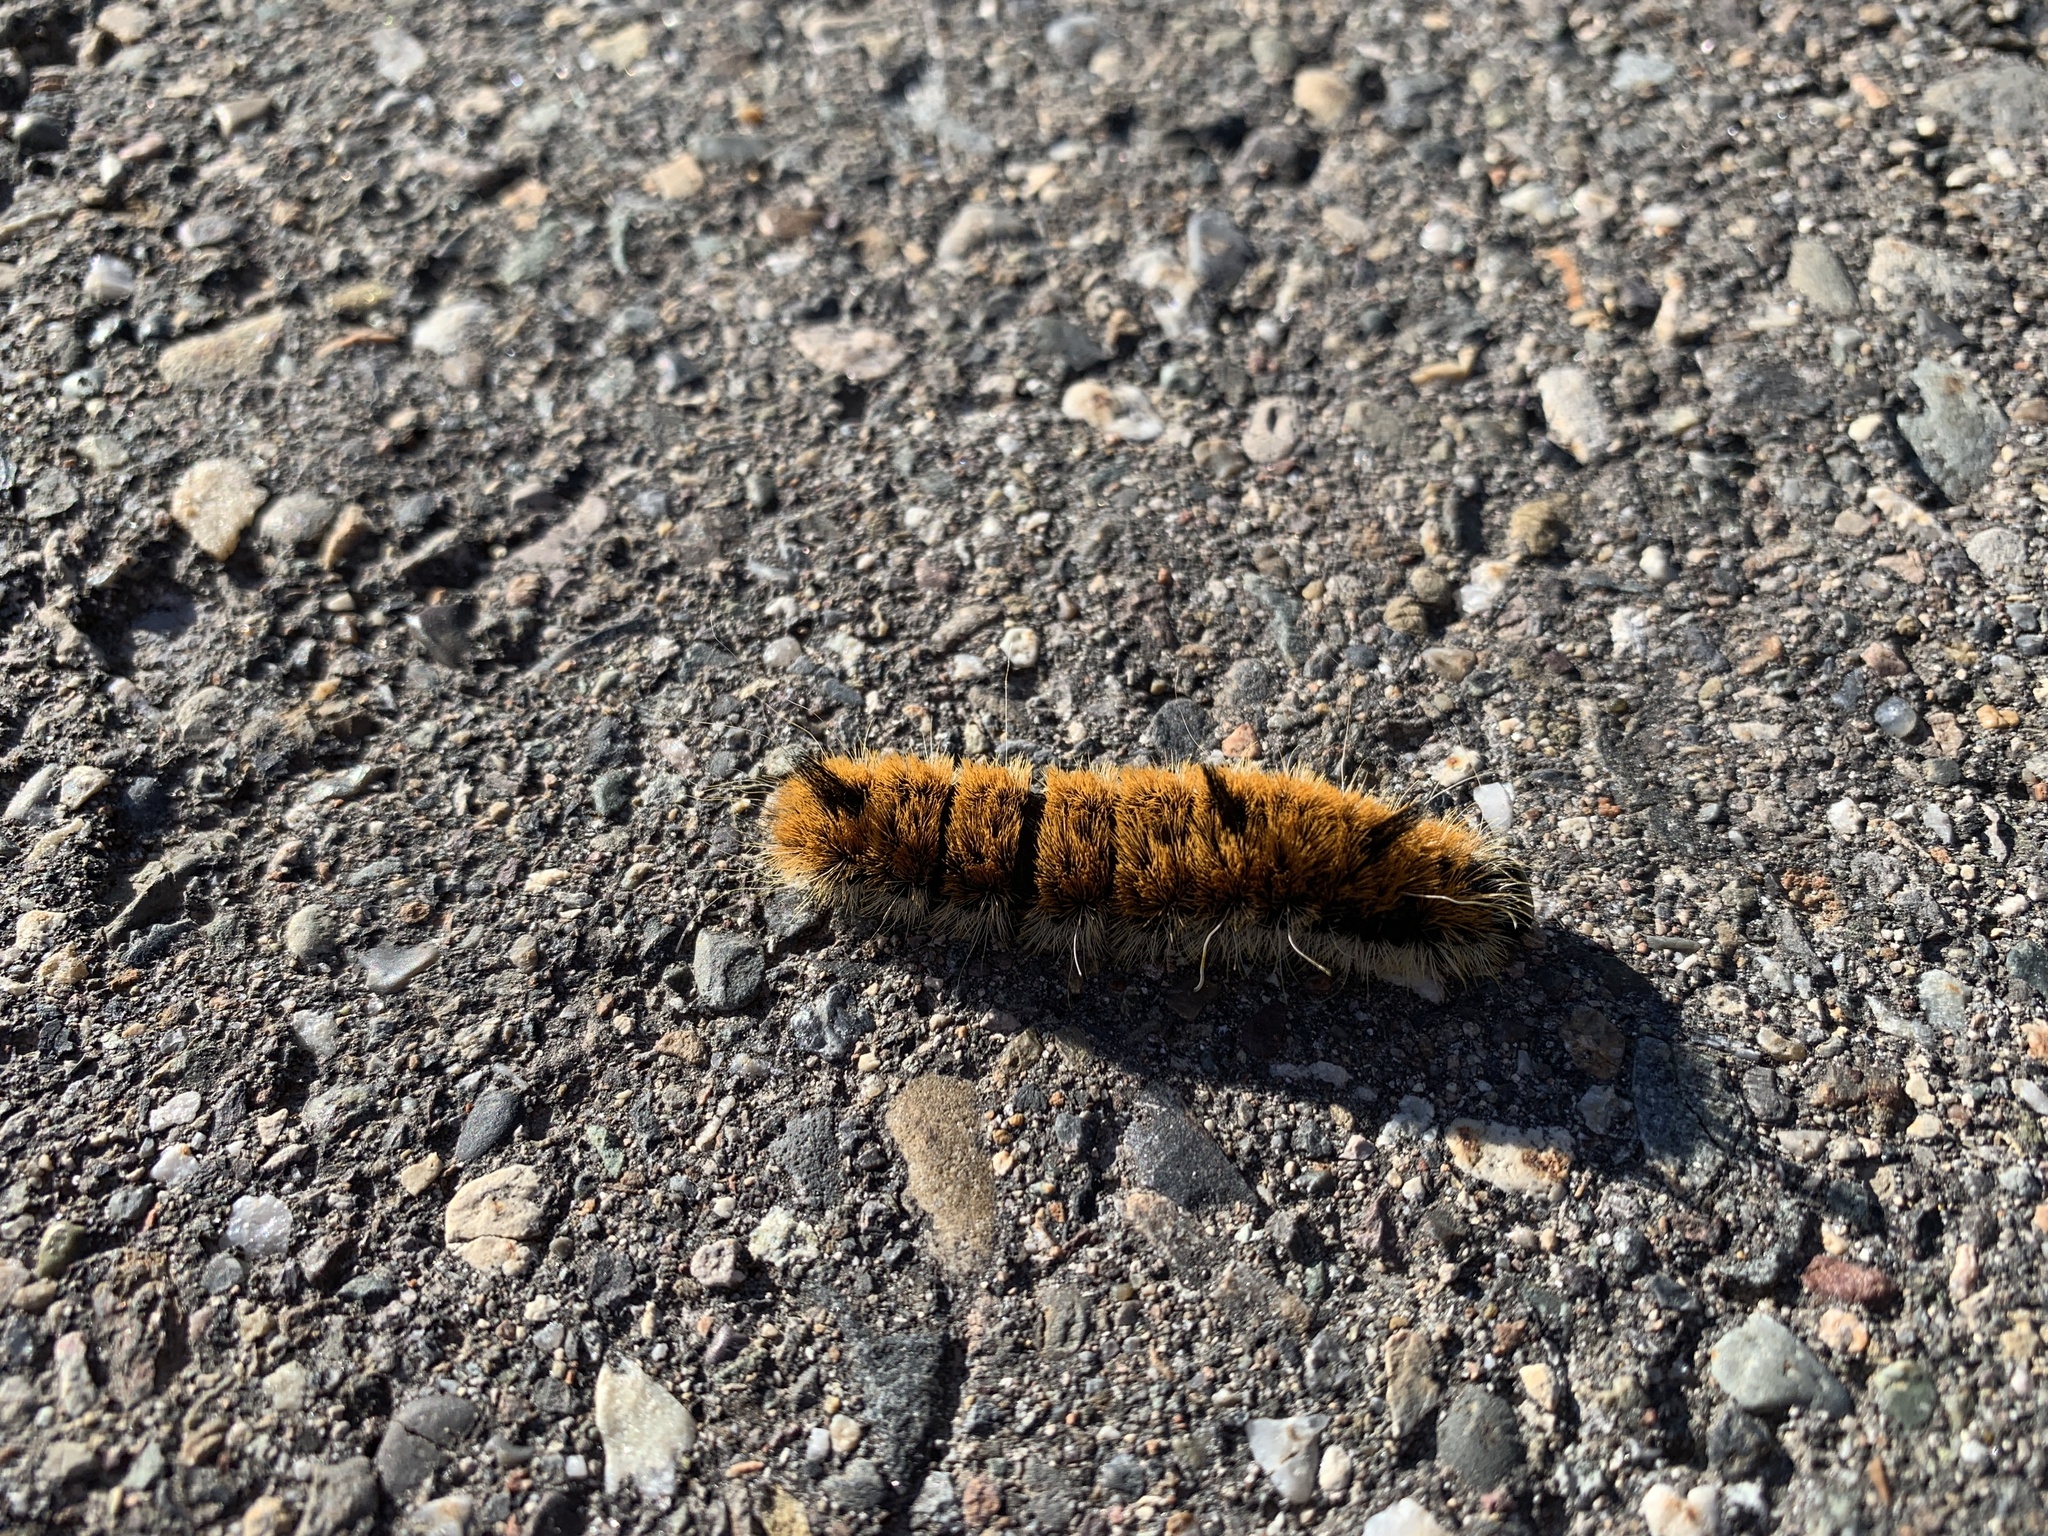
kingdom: Animalia
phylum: Arthropoda
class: Insecta
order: Lepidoptera
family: Noctuidae
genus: Acronicta
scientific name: Acronicta insita
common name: Large gray dagger
